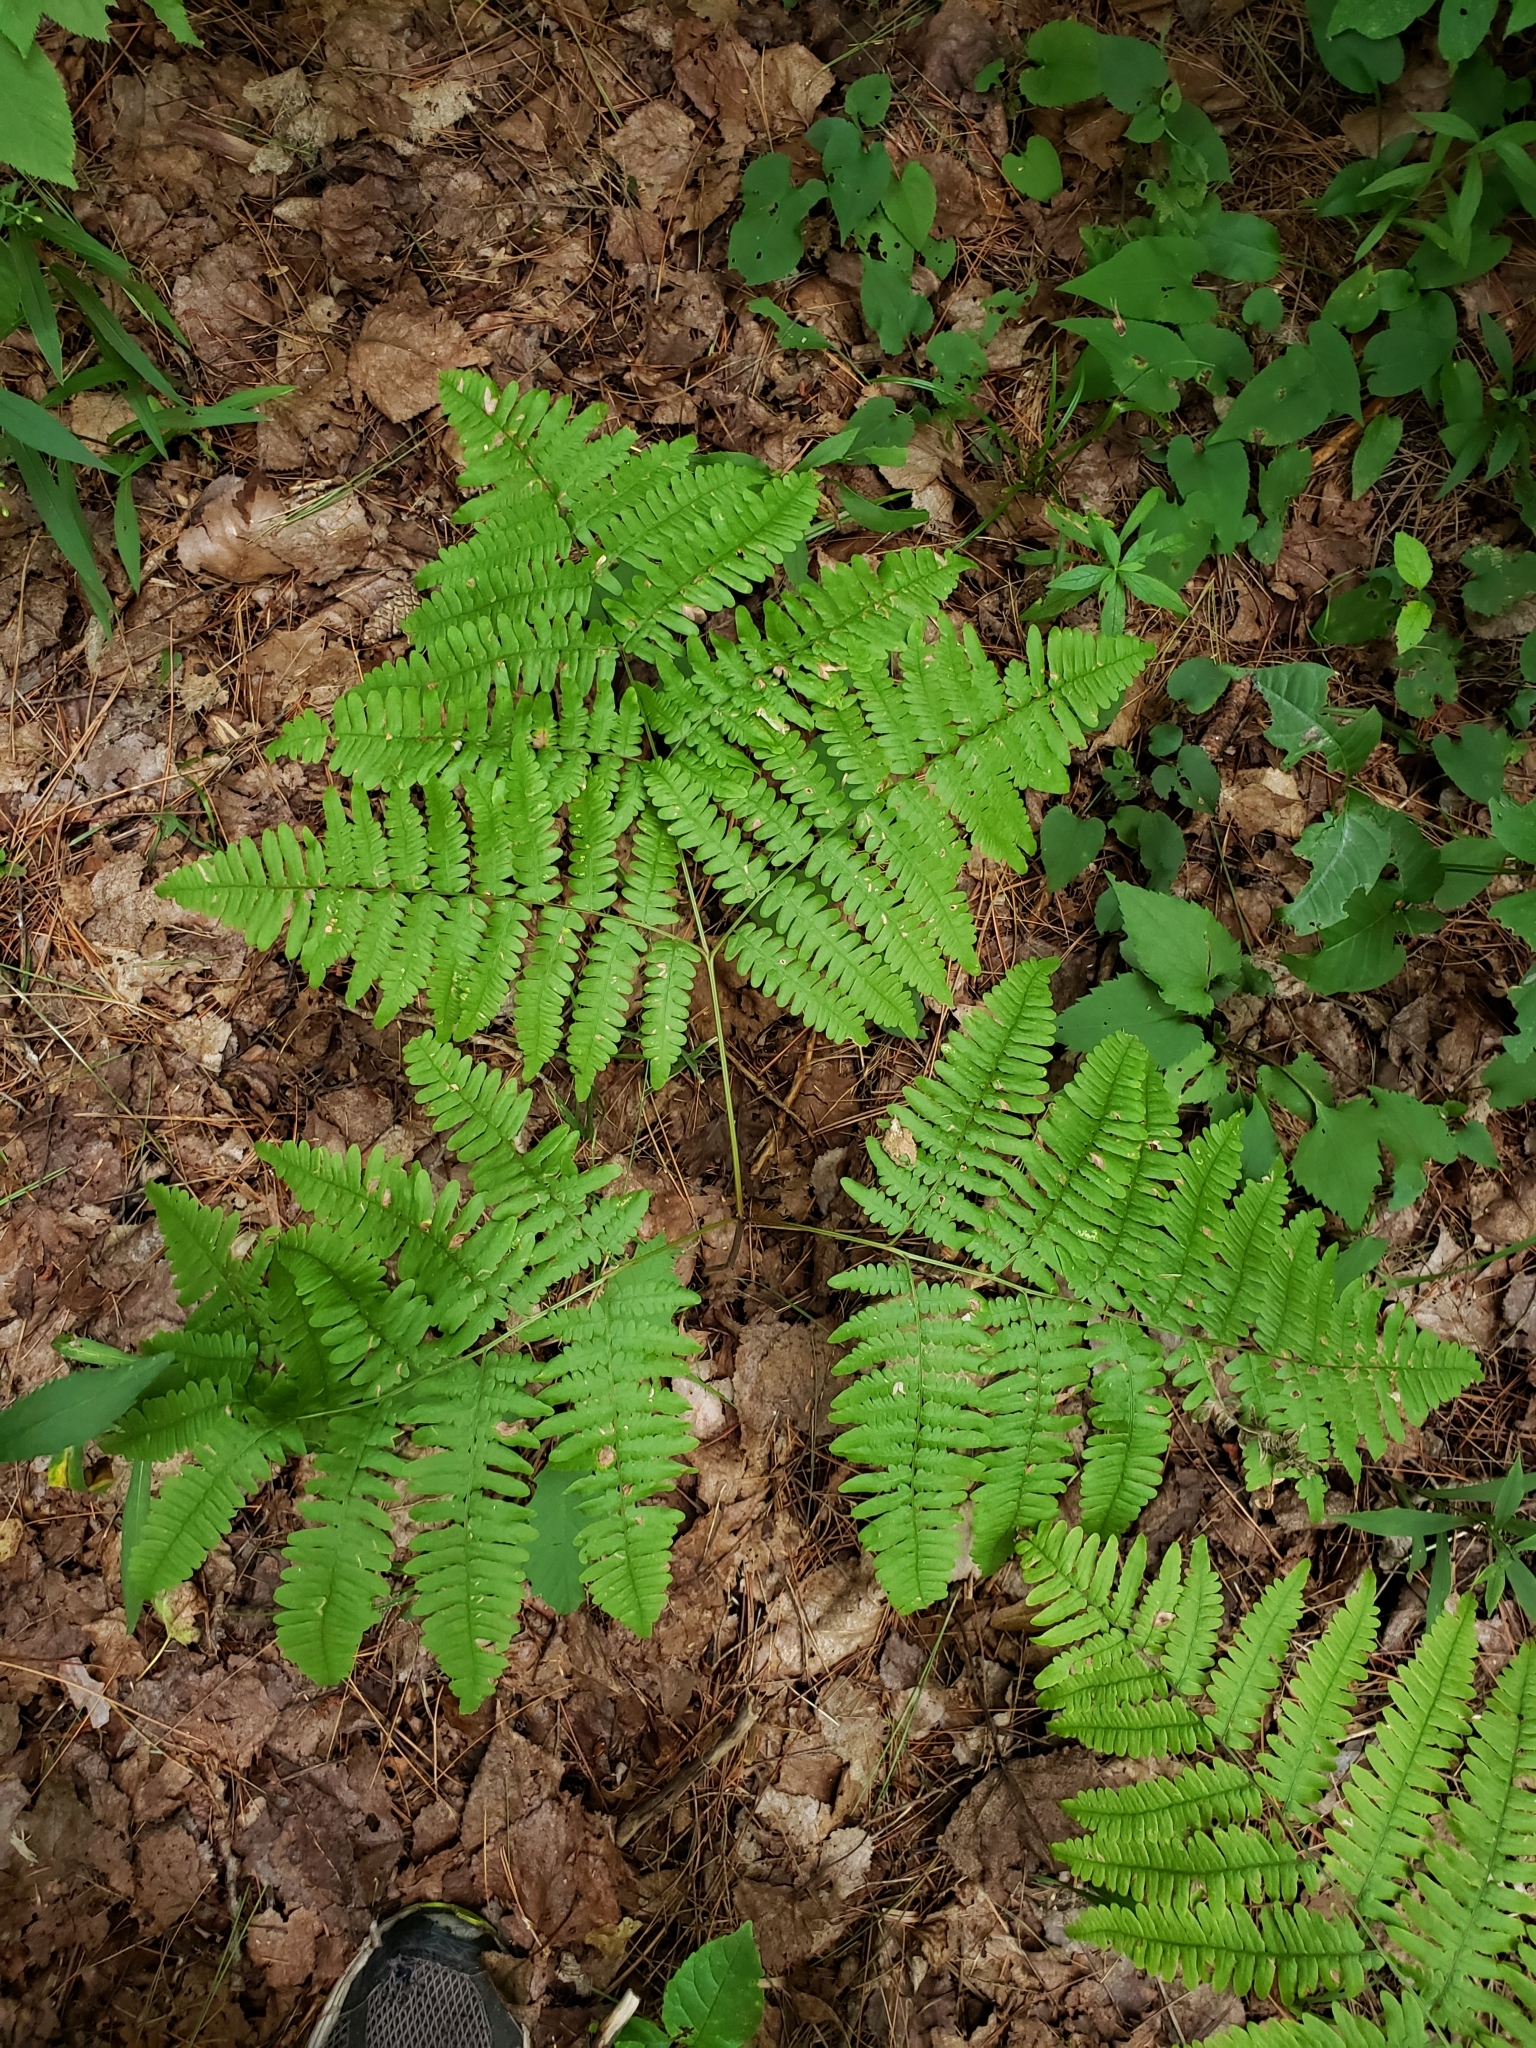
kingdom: Plantae
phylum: Tracheophyta
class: Polypodiopsida
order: Polypodiales
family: Dennstaedtiaceae
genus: Pteridium
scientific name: Pteridium aquilinum
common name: Bracken
